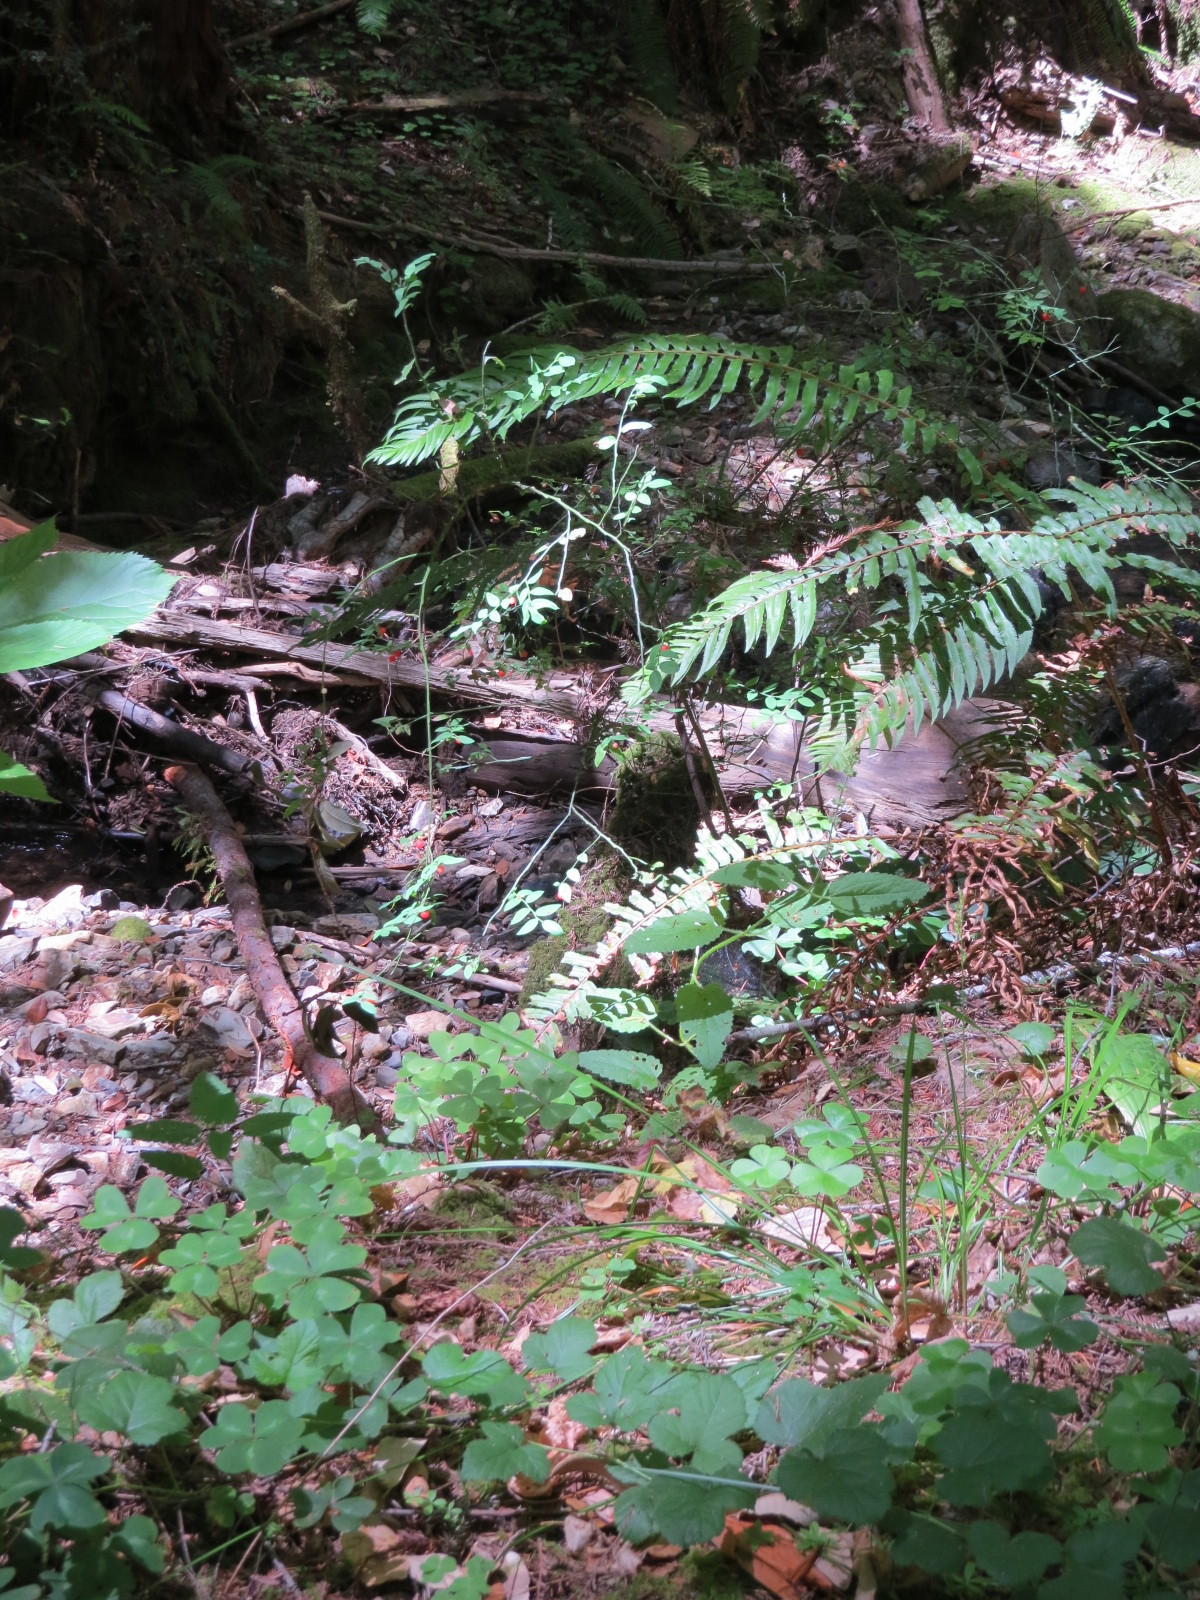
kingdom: Plantae
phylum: Tracheophyta
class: Magnoliopsida
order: Ericales
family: Ericaceae
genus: Vaccinium
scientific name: Vaccinium parvifolium
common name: Red-huckleberry
